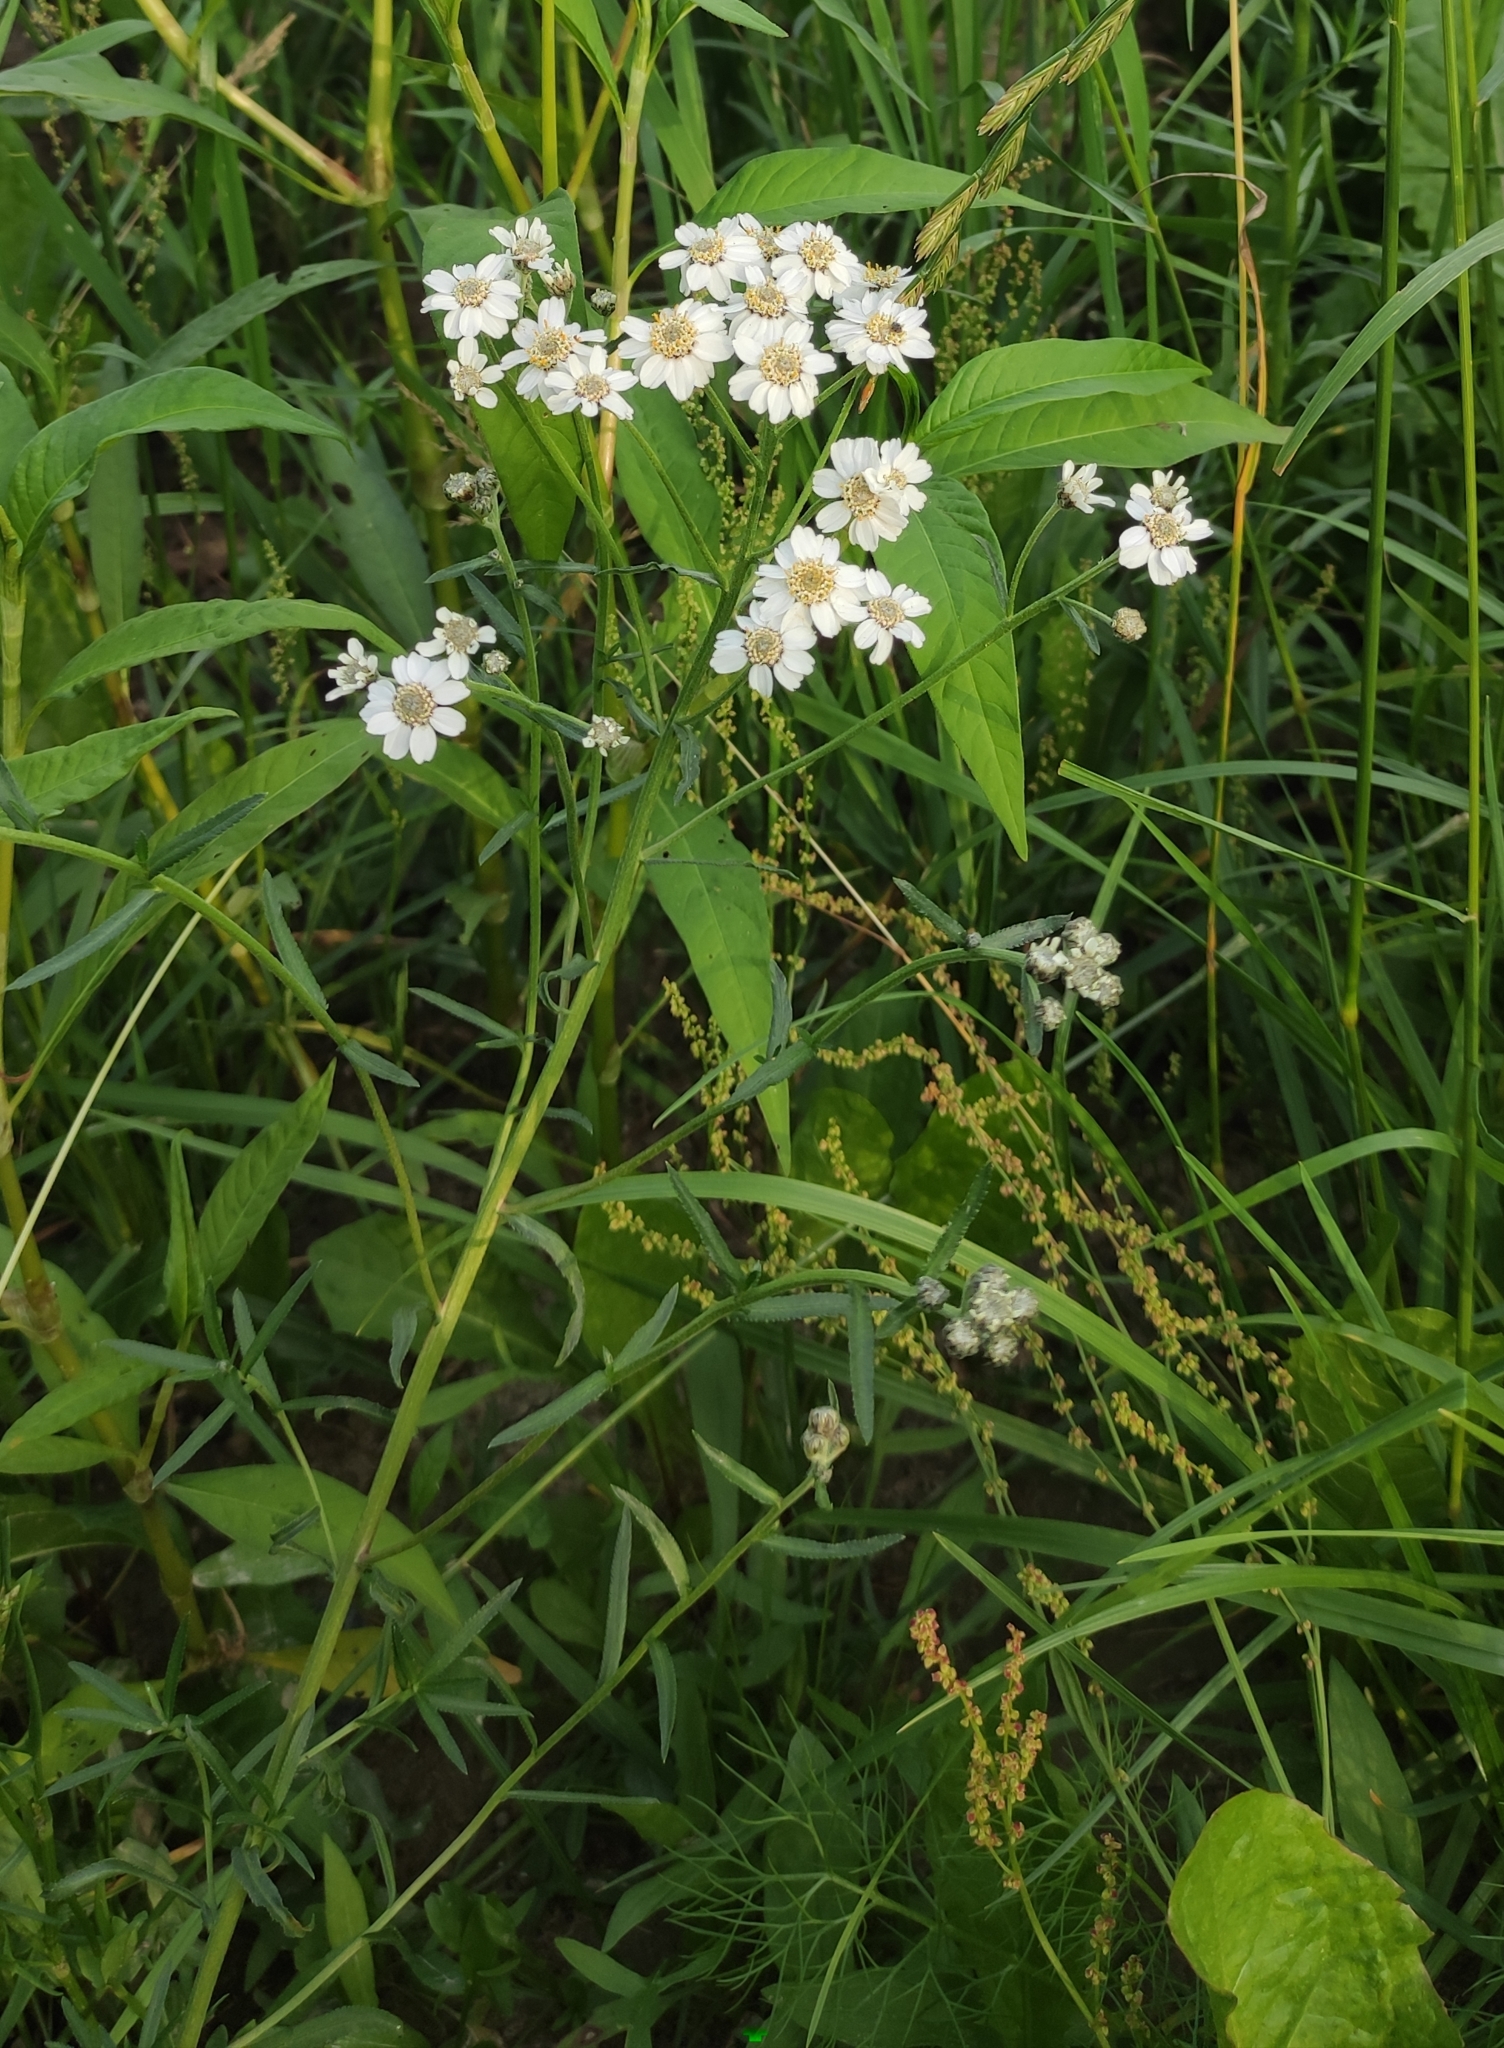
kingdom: Plantae
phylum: Tracheophyta
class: Magnoliopsida
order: Asterales
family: Asteraceae
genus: Achillea
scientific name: Achillea ptarmica
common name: Sneezeweed
